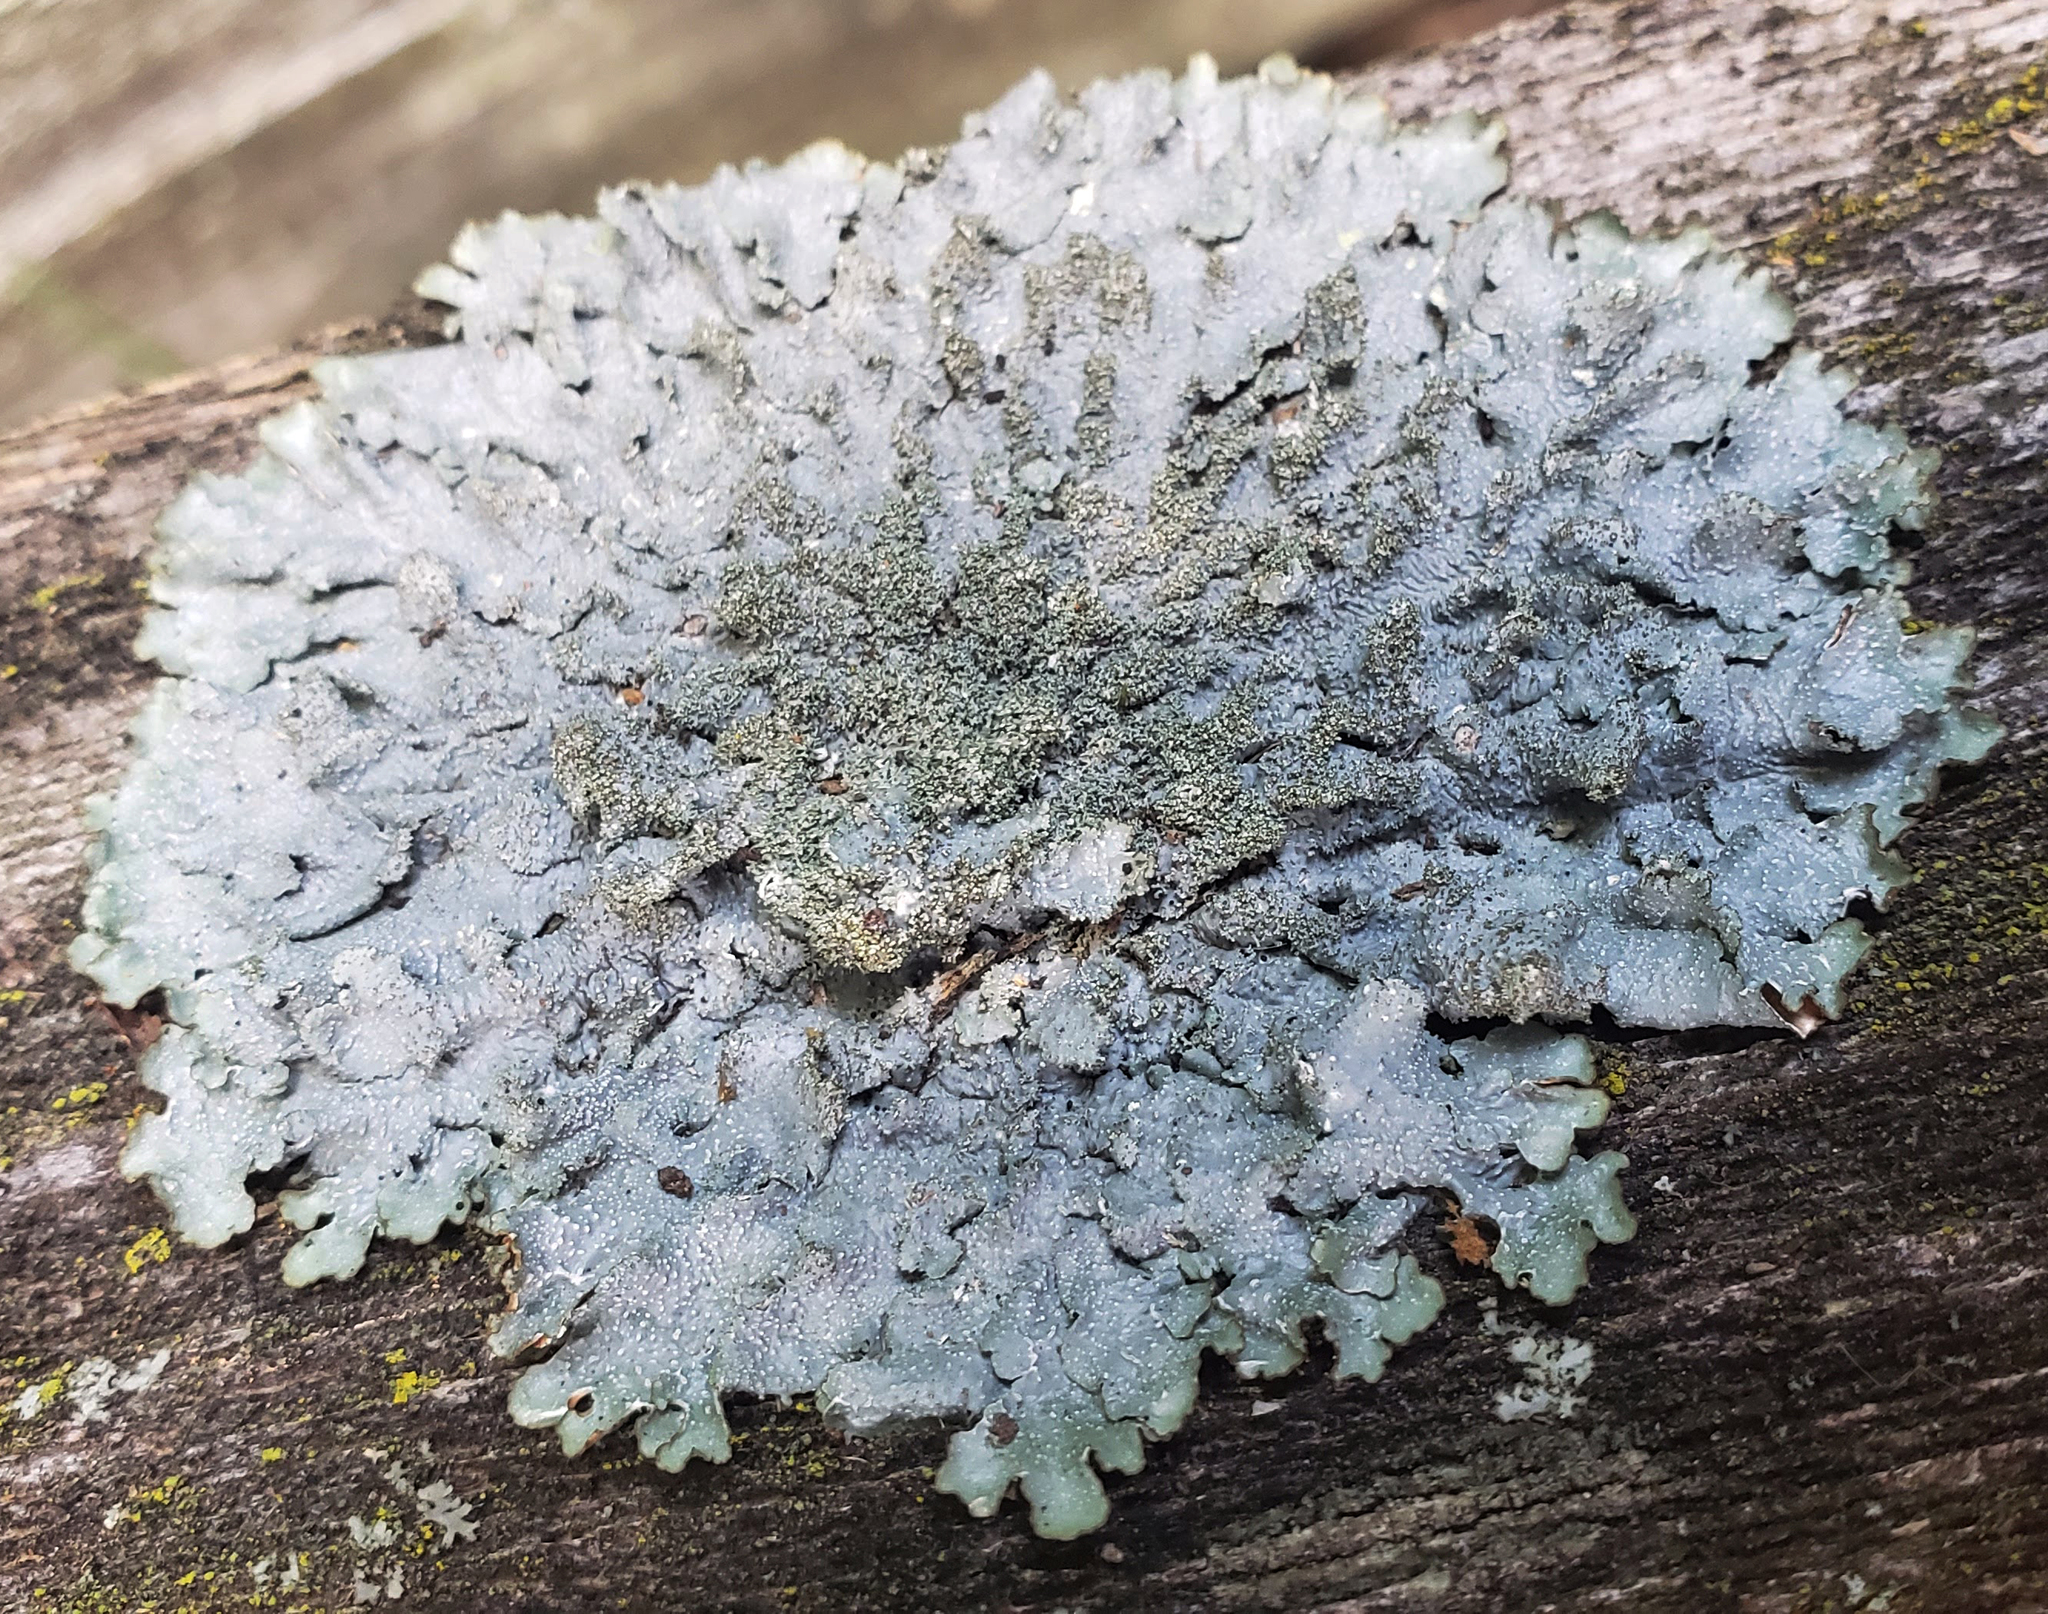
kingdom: Fungi
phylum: Ascomycota
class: Lecanoromycetes
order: Lecanorales
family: Parmeliaceae
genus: Punctelia
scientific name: Punctelia rudecta
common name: Rough speckled shield lichen
